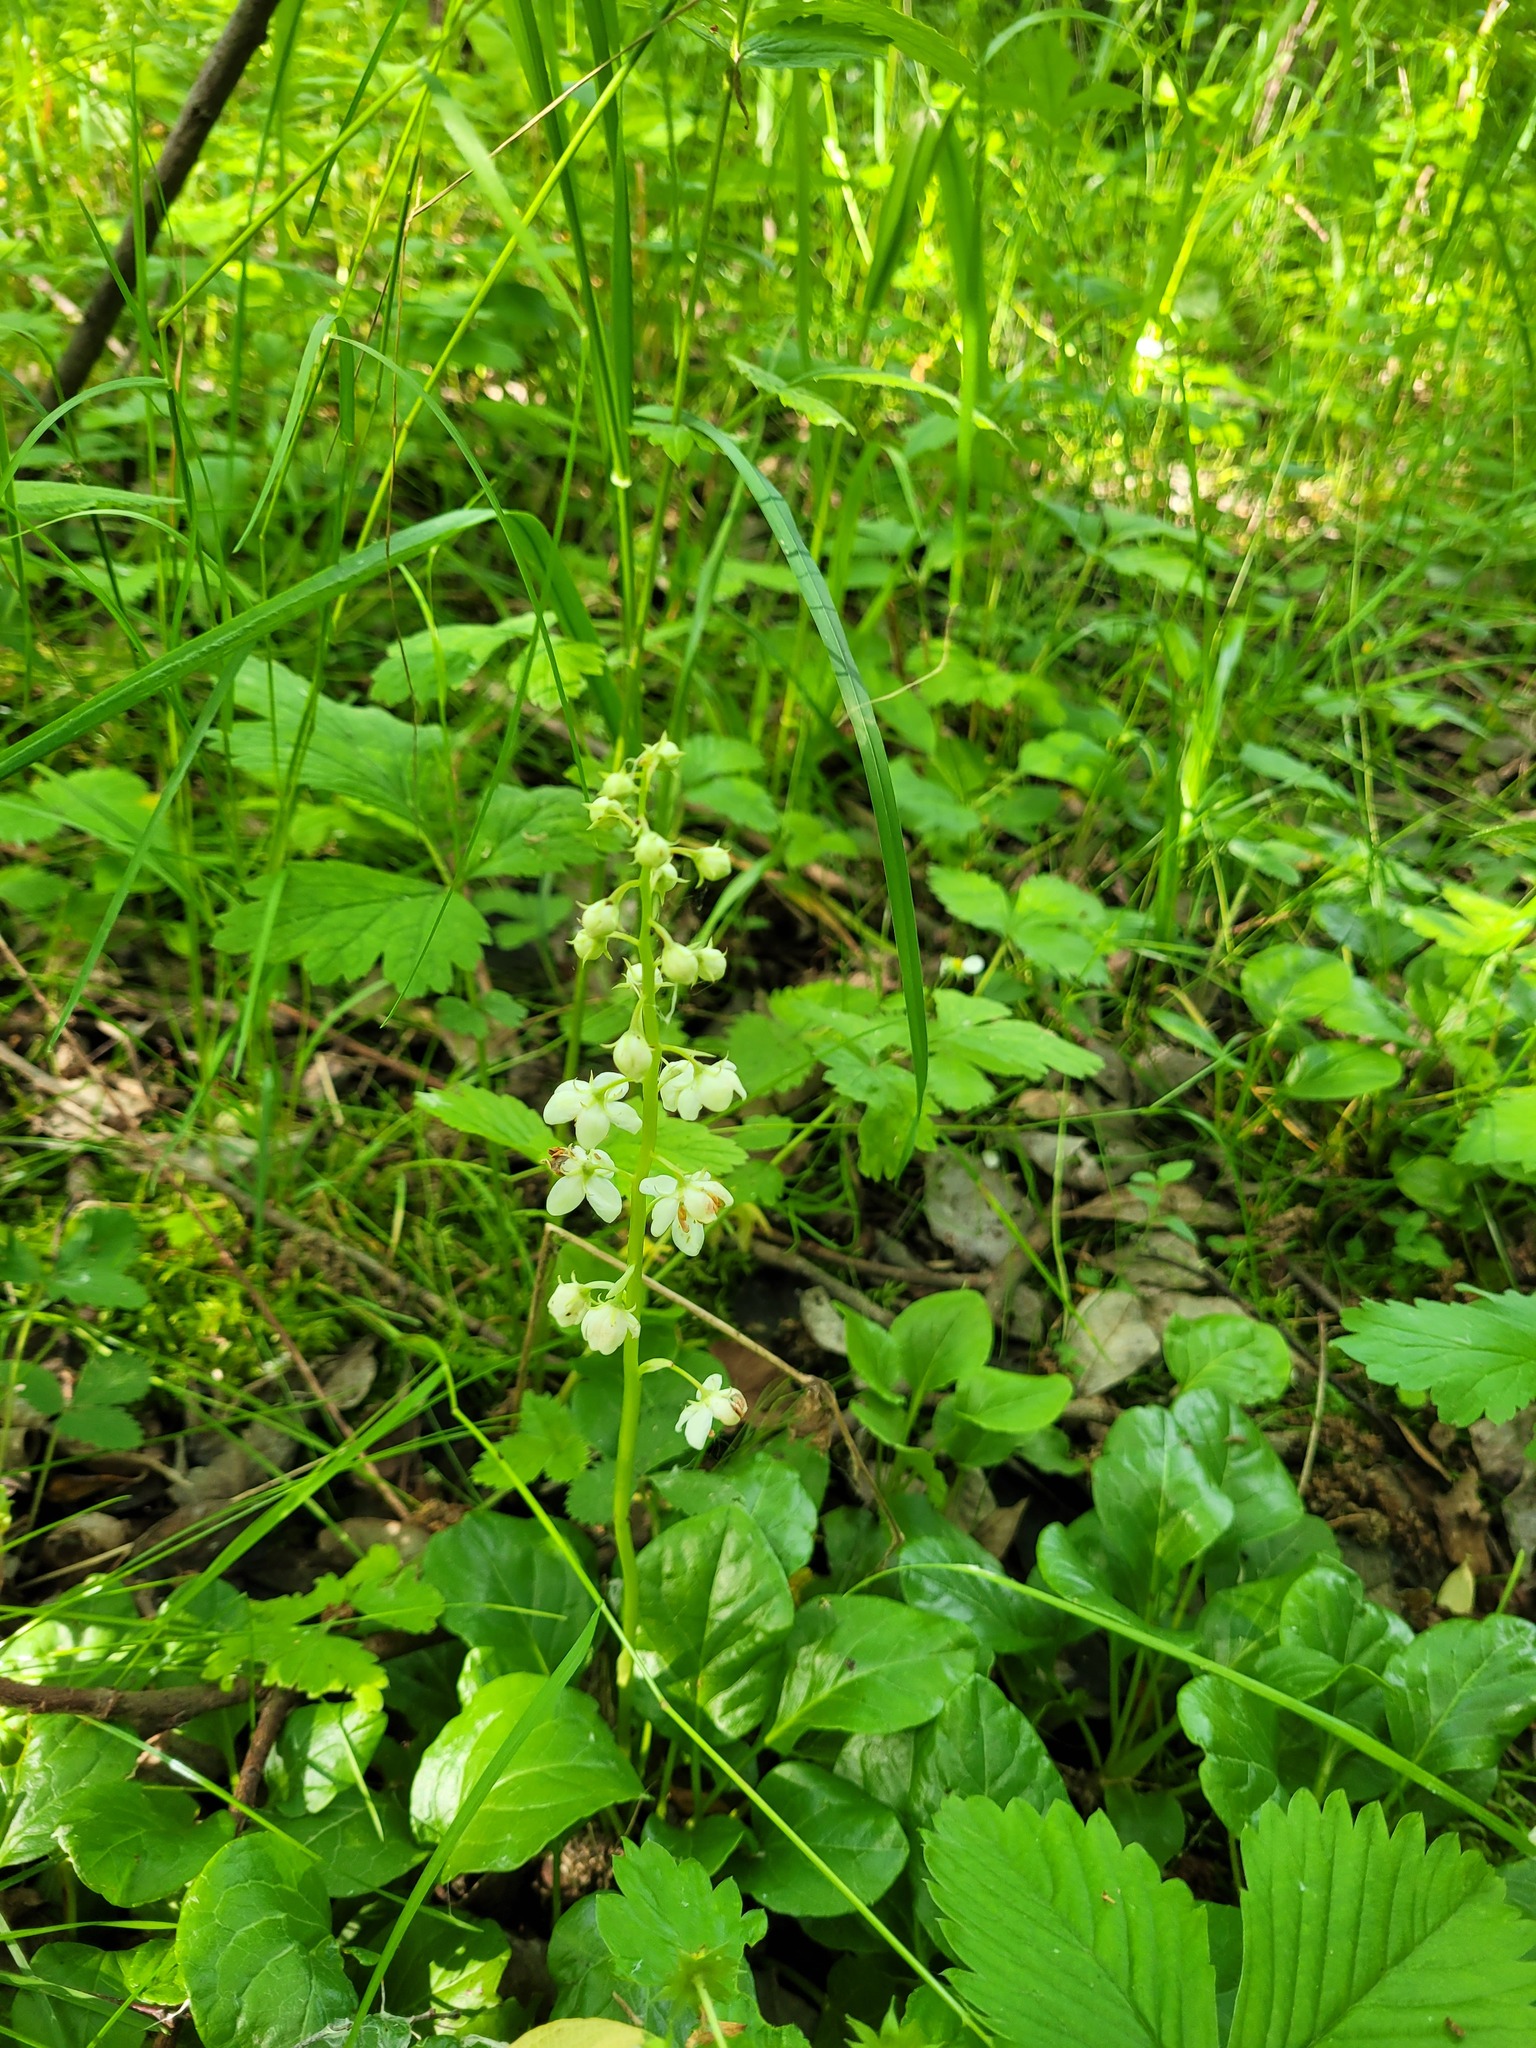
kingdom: Plantae
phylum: Tracheophyta
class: Magnoliopsida
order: Ericales
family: Ericaceae
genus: Pyrola
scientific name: Pyrola rotundifolia
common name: Round-leaved wintergreen
